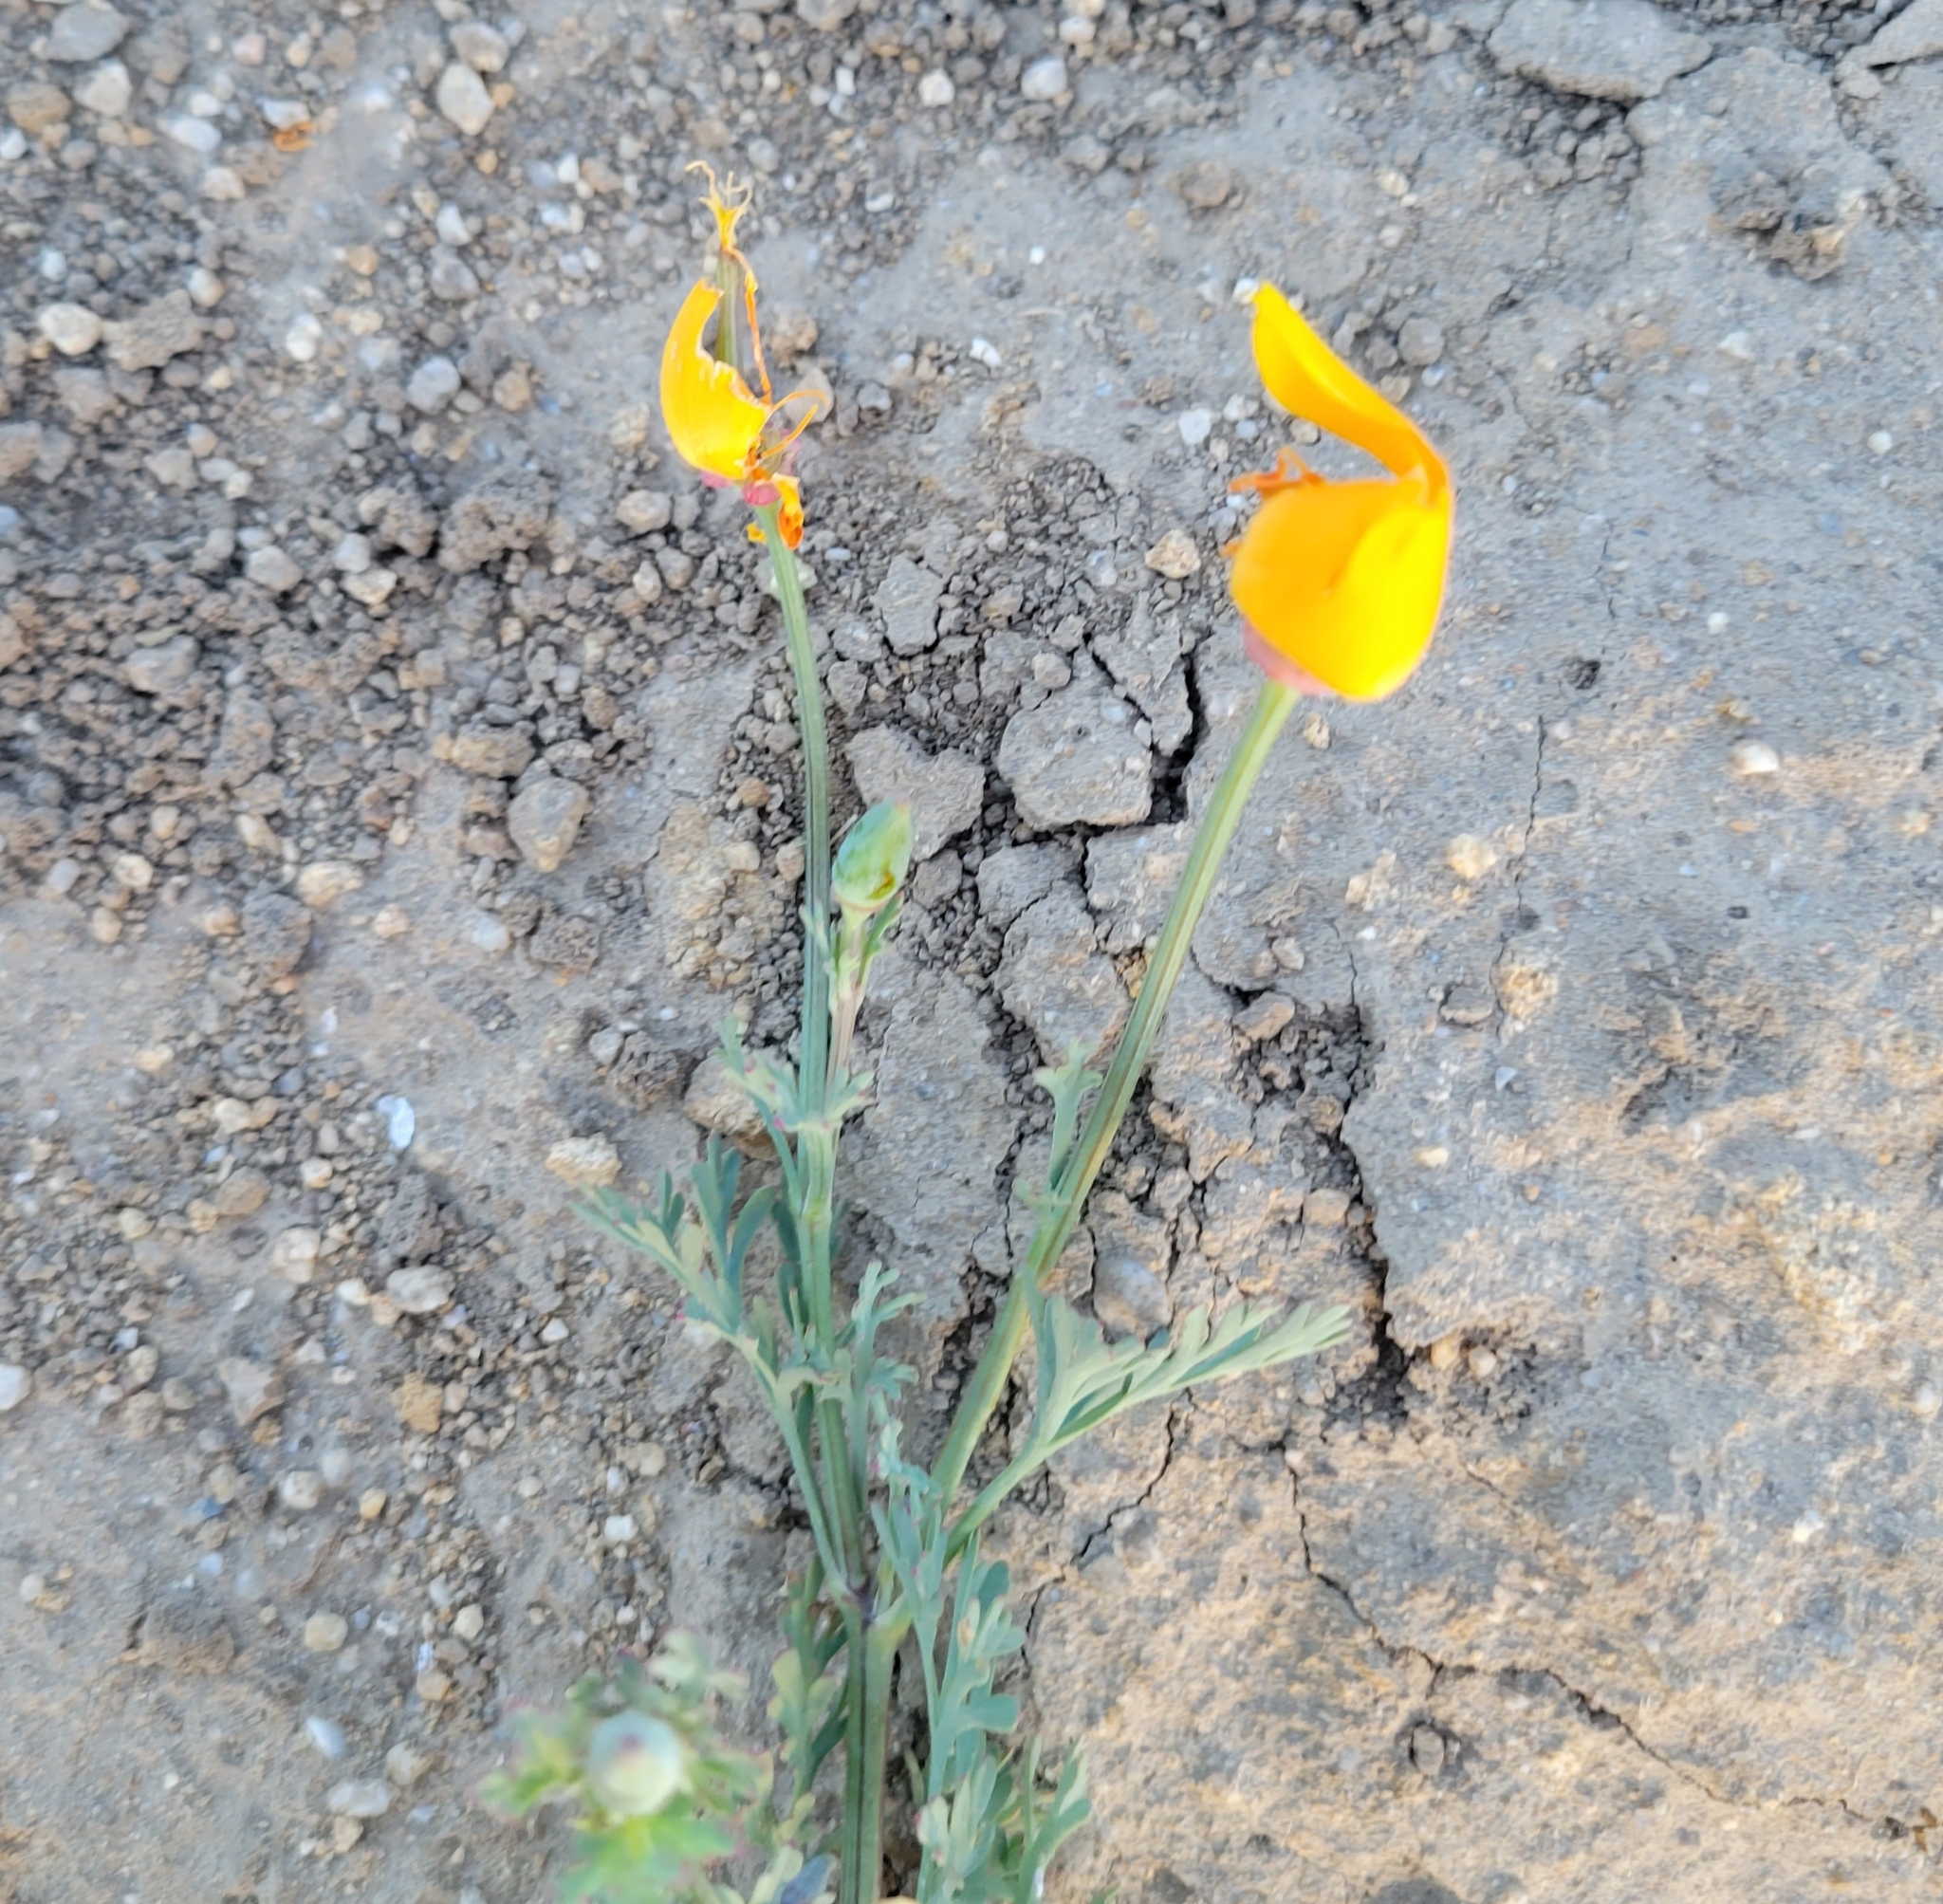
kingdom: Plantae
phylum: Tracheophyta
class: Magnoliopsida
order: Ranunculales
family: Papaveraceae
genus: Eschscholzia
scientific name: Eschscholzia californica
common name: California poppy
